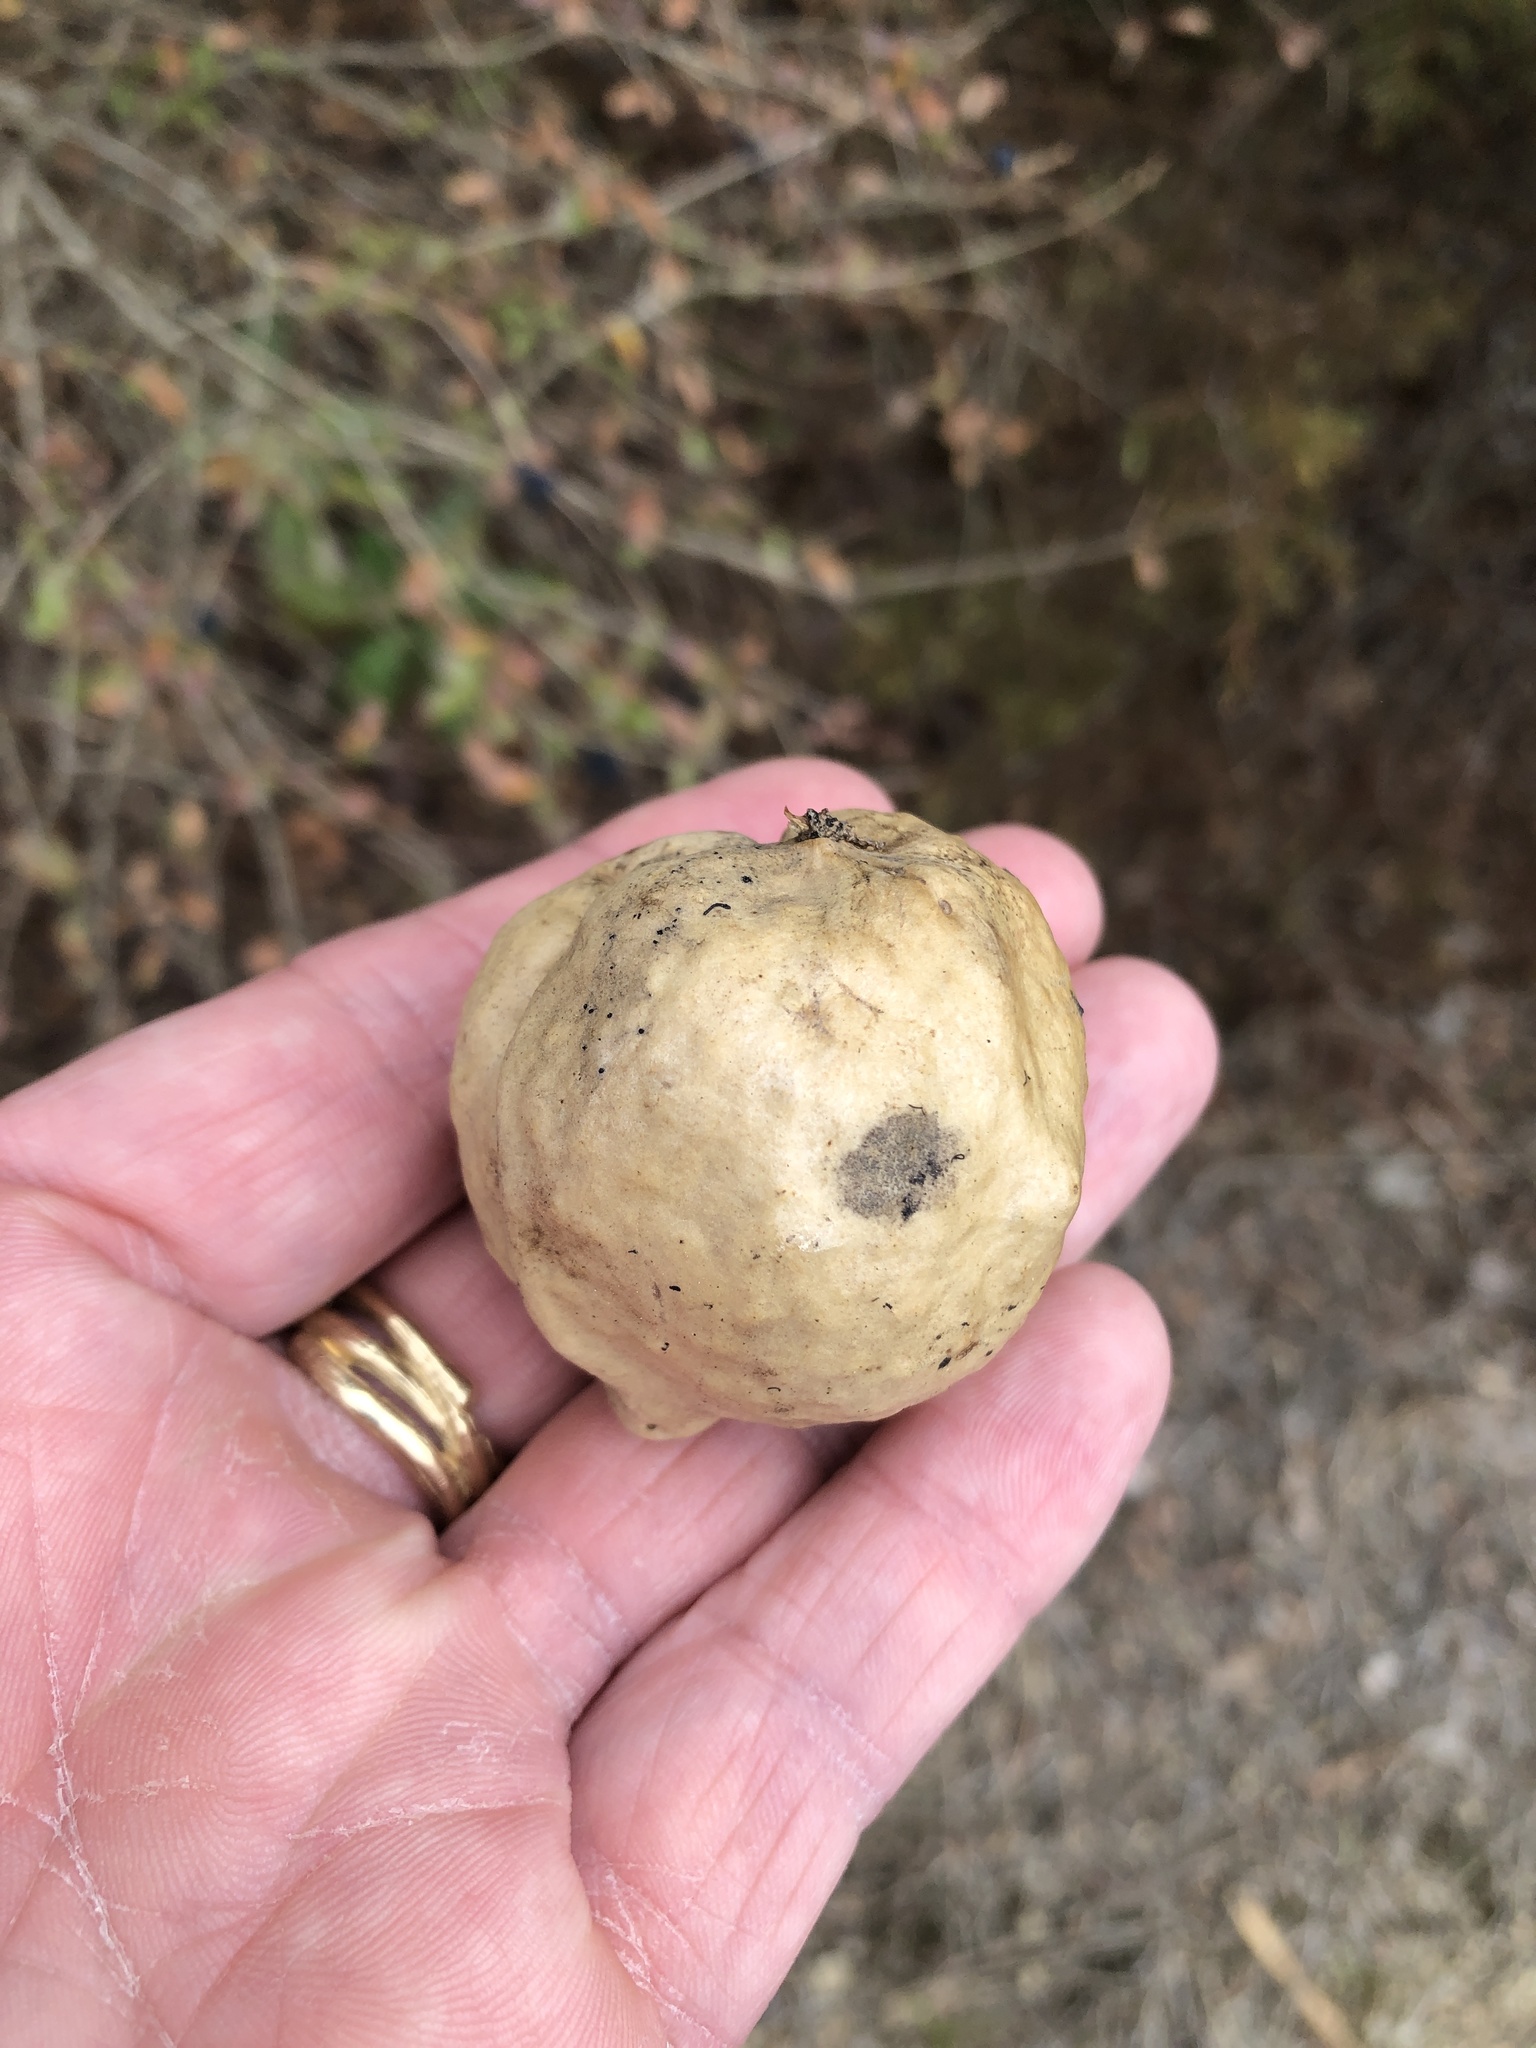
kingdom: Animalia
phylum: Arthropoda
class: Insecta
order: Hymenoptera
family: Cynipidae
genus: Amphibolips
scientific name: Amphibolips
